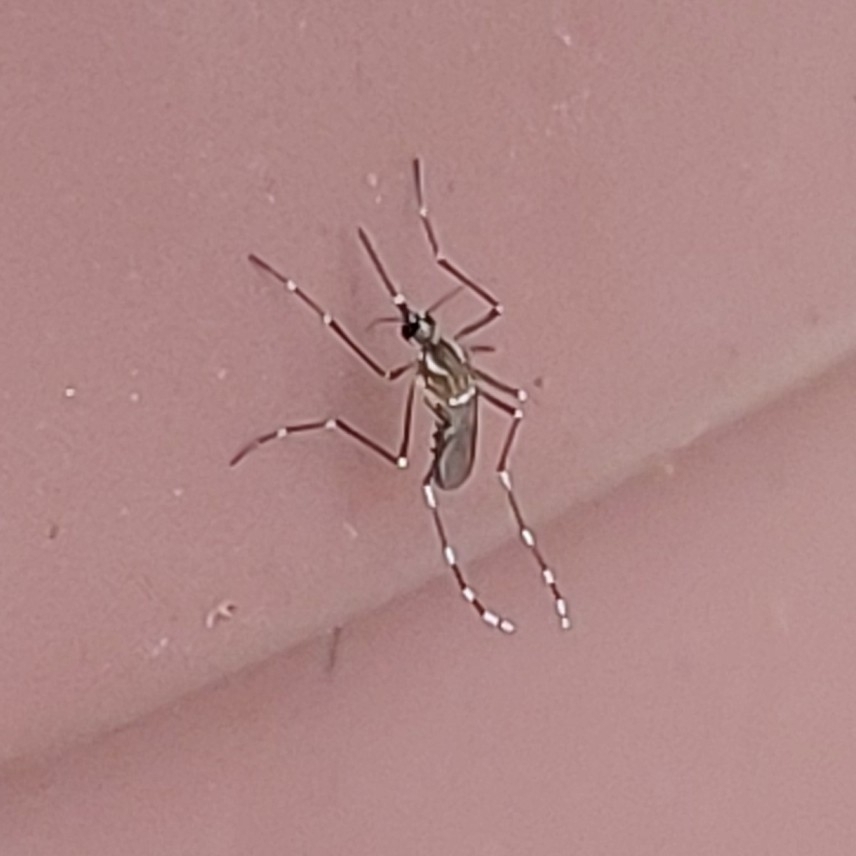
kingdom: Animalia
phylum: Arthropoda
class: Insecta
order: Diptera
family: Culicidae
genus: Aedes
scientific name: Aedes aegypti
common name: Yellow fever mosquito
